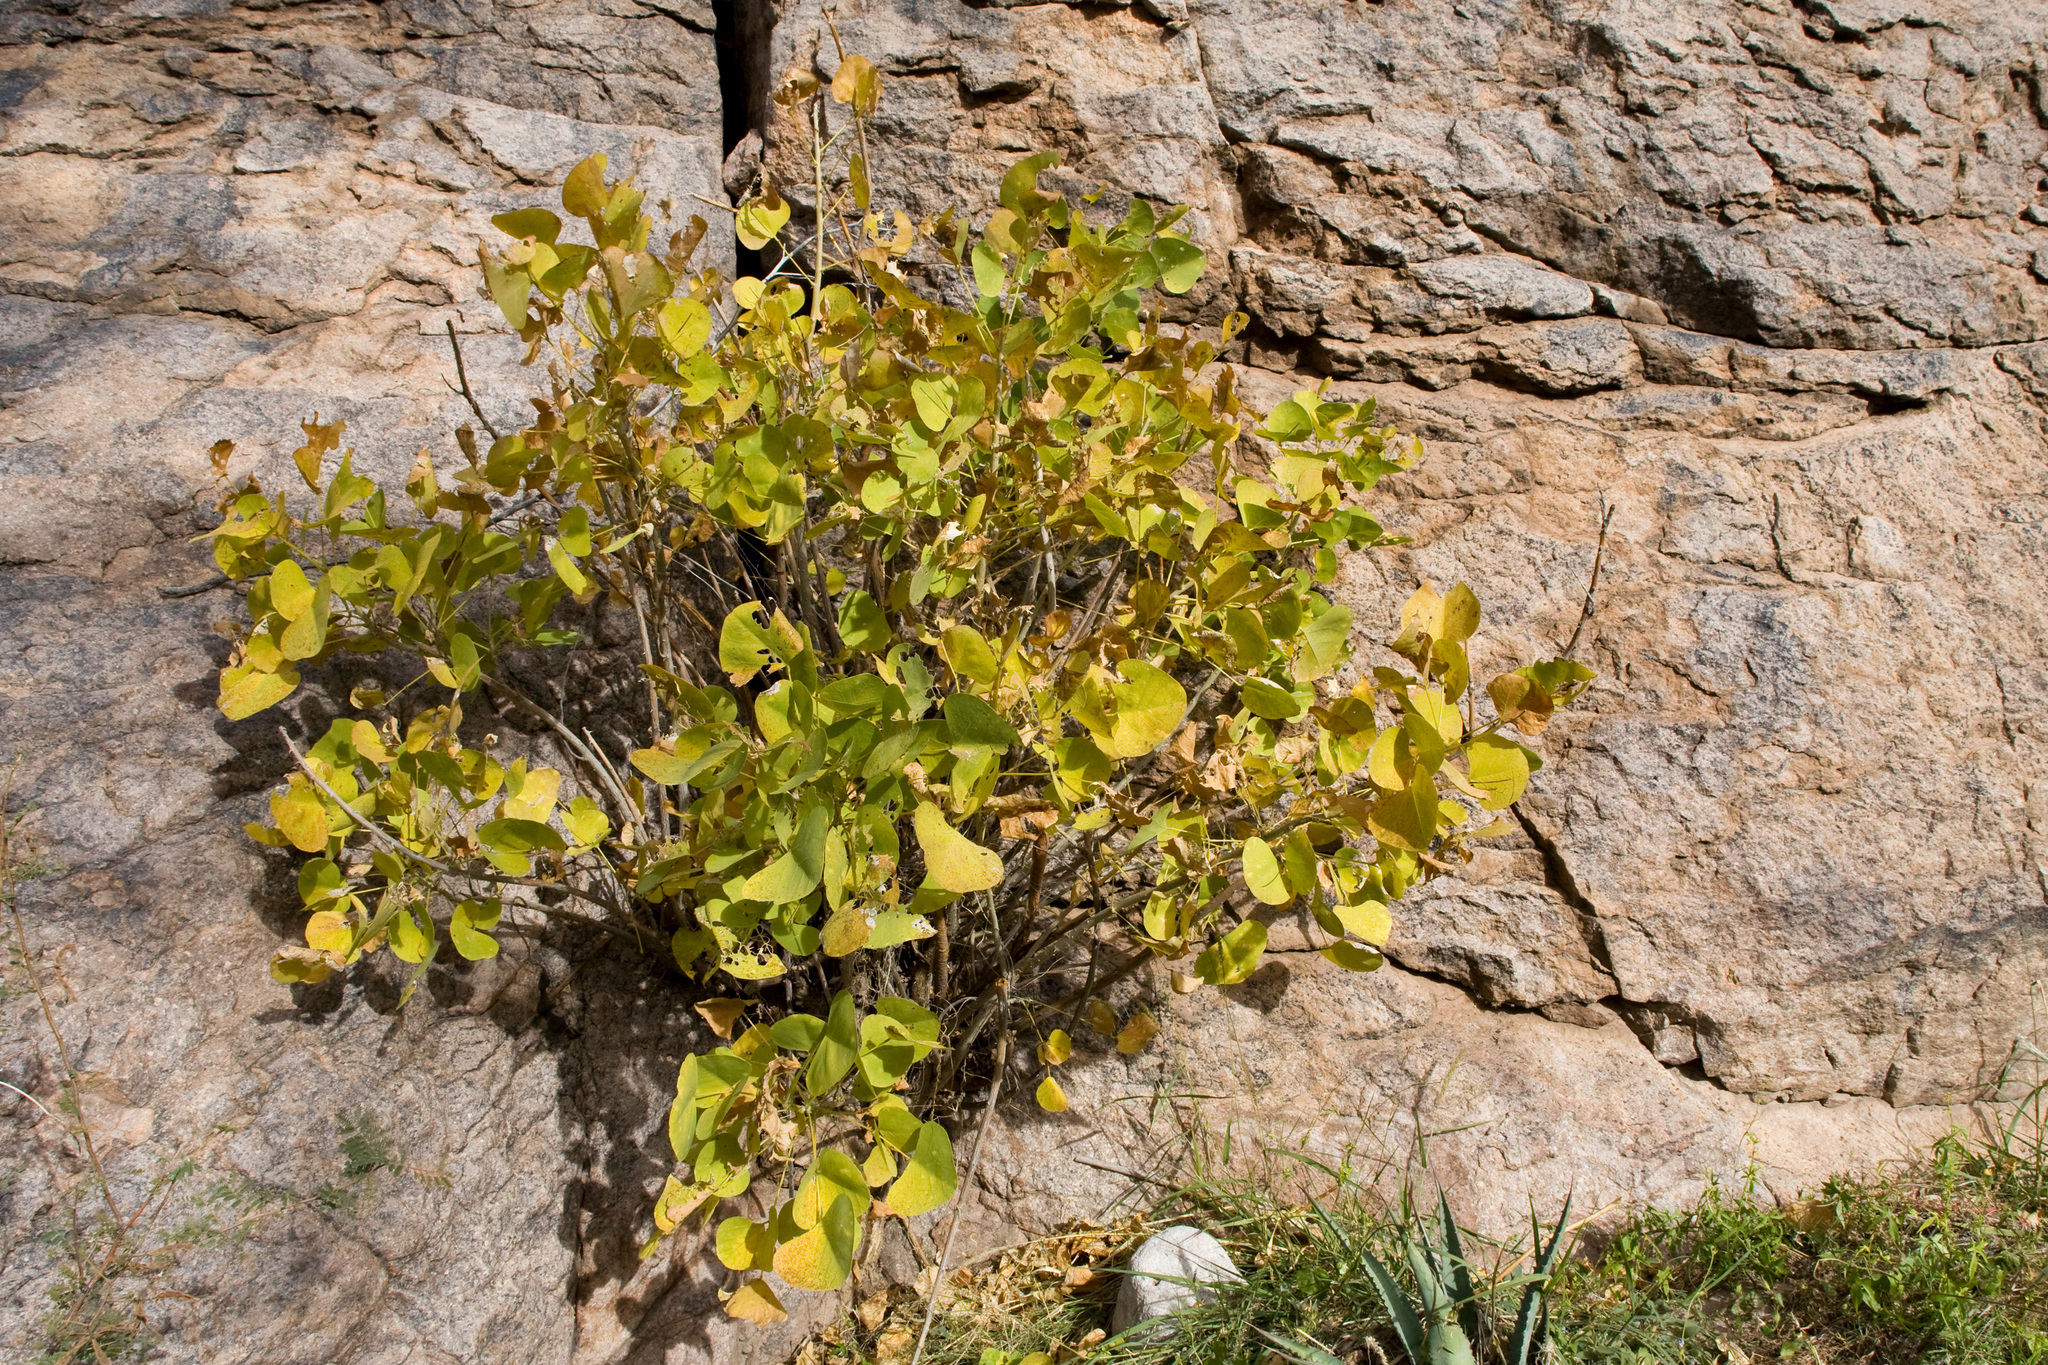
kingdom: Plantae
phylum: Tracheophyta
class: Magnoliopsida
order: Fabales
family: Fabaceae
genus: Erythrina
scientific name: Erythrina flabelliformis
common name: Chilicote
